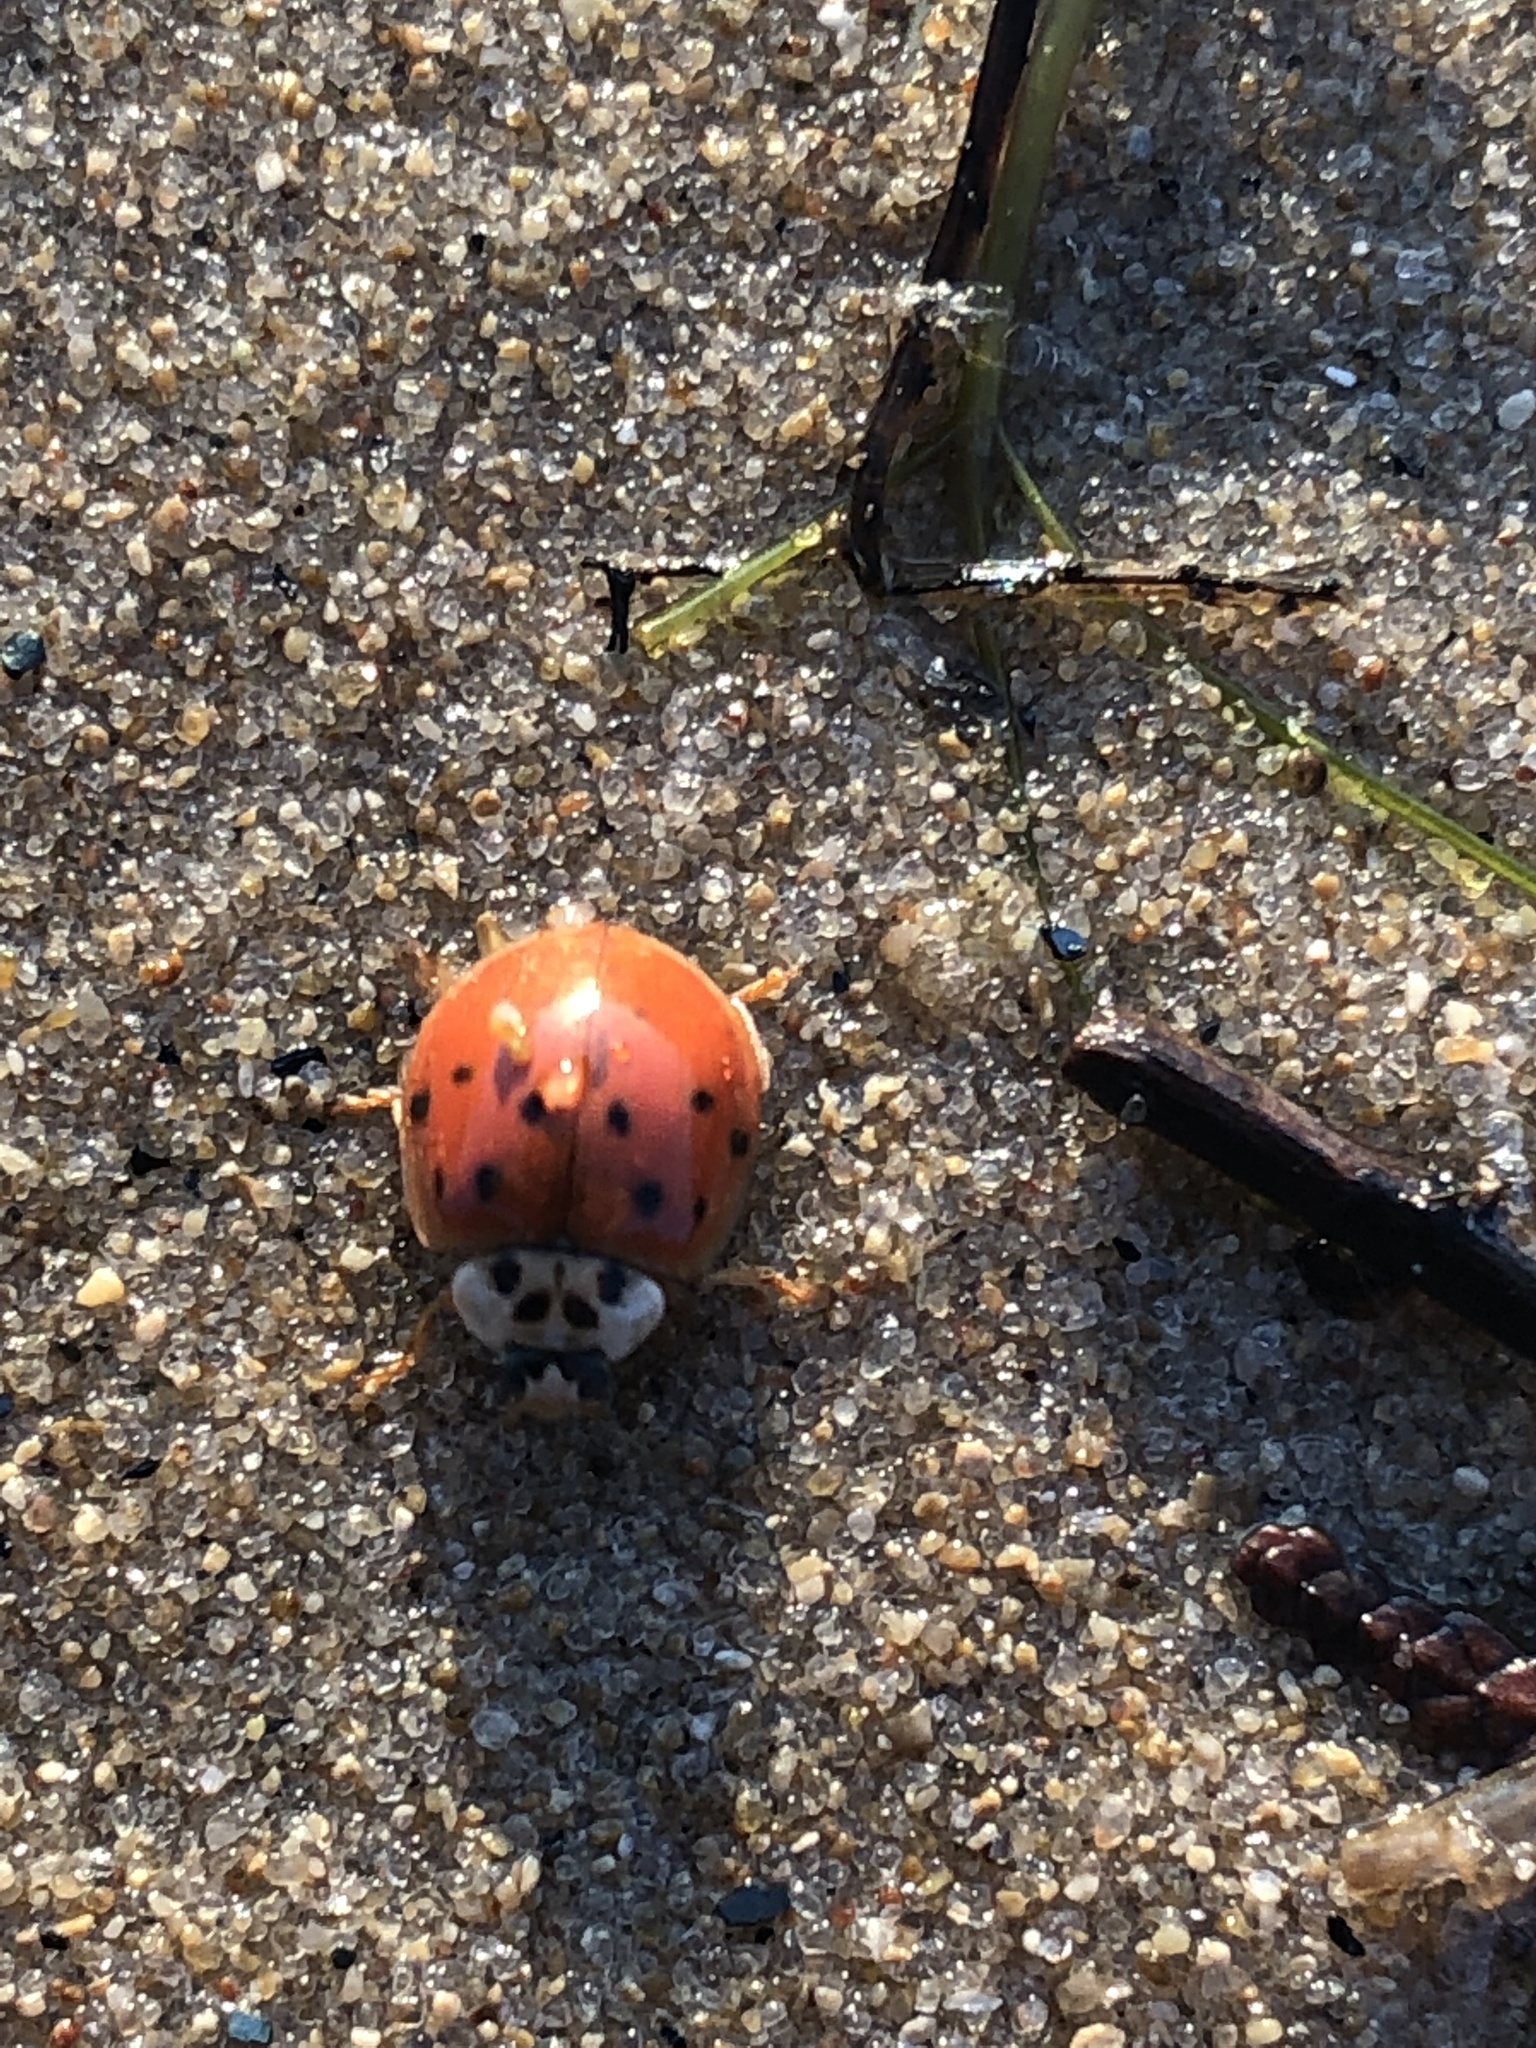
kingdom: Animalia
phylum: Arthropoda
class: Insecta
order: Coleoptera
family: Coccinellidae
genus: Harmonia
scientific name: Harmonia axyridis
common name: Harlequin ladybird
